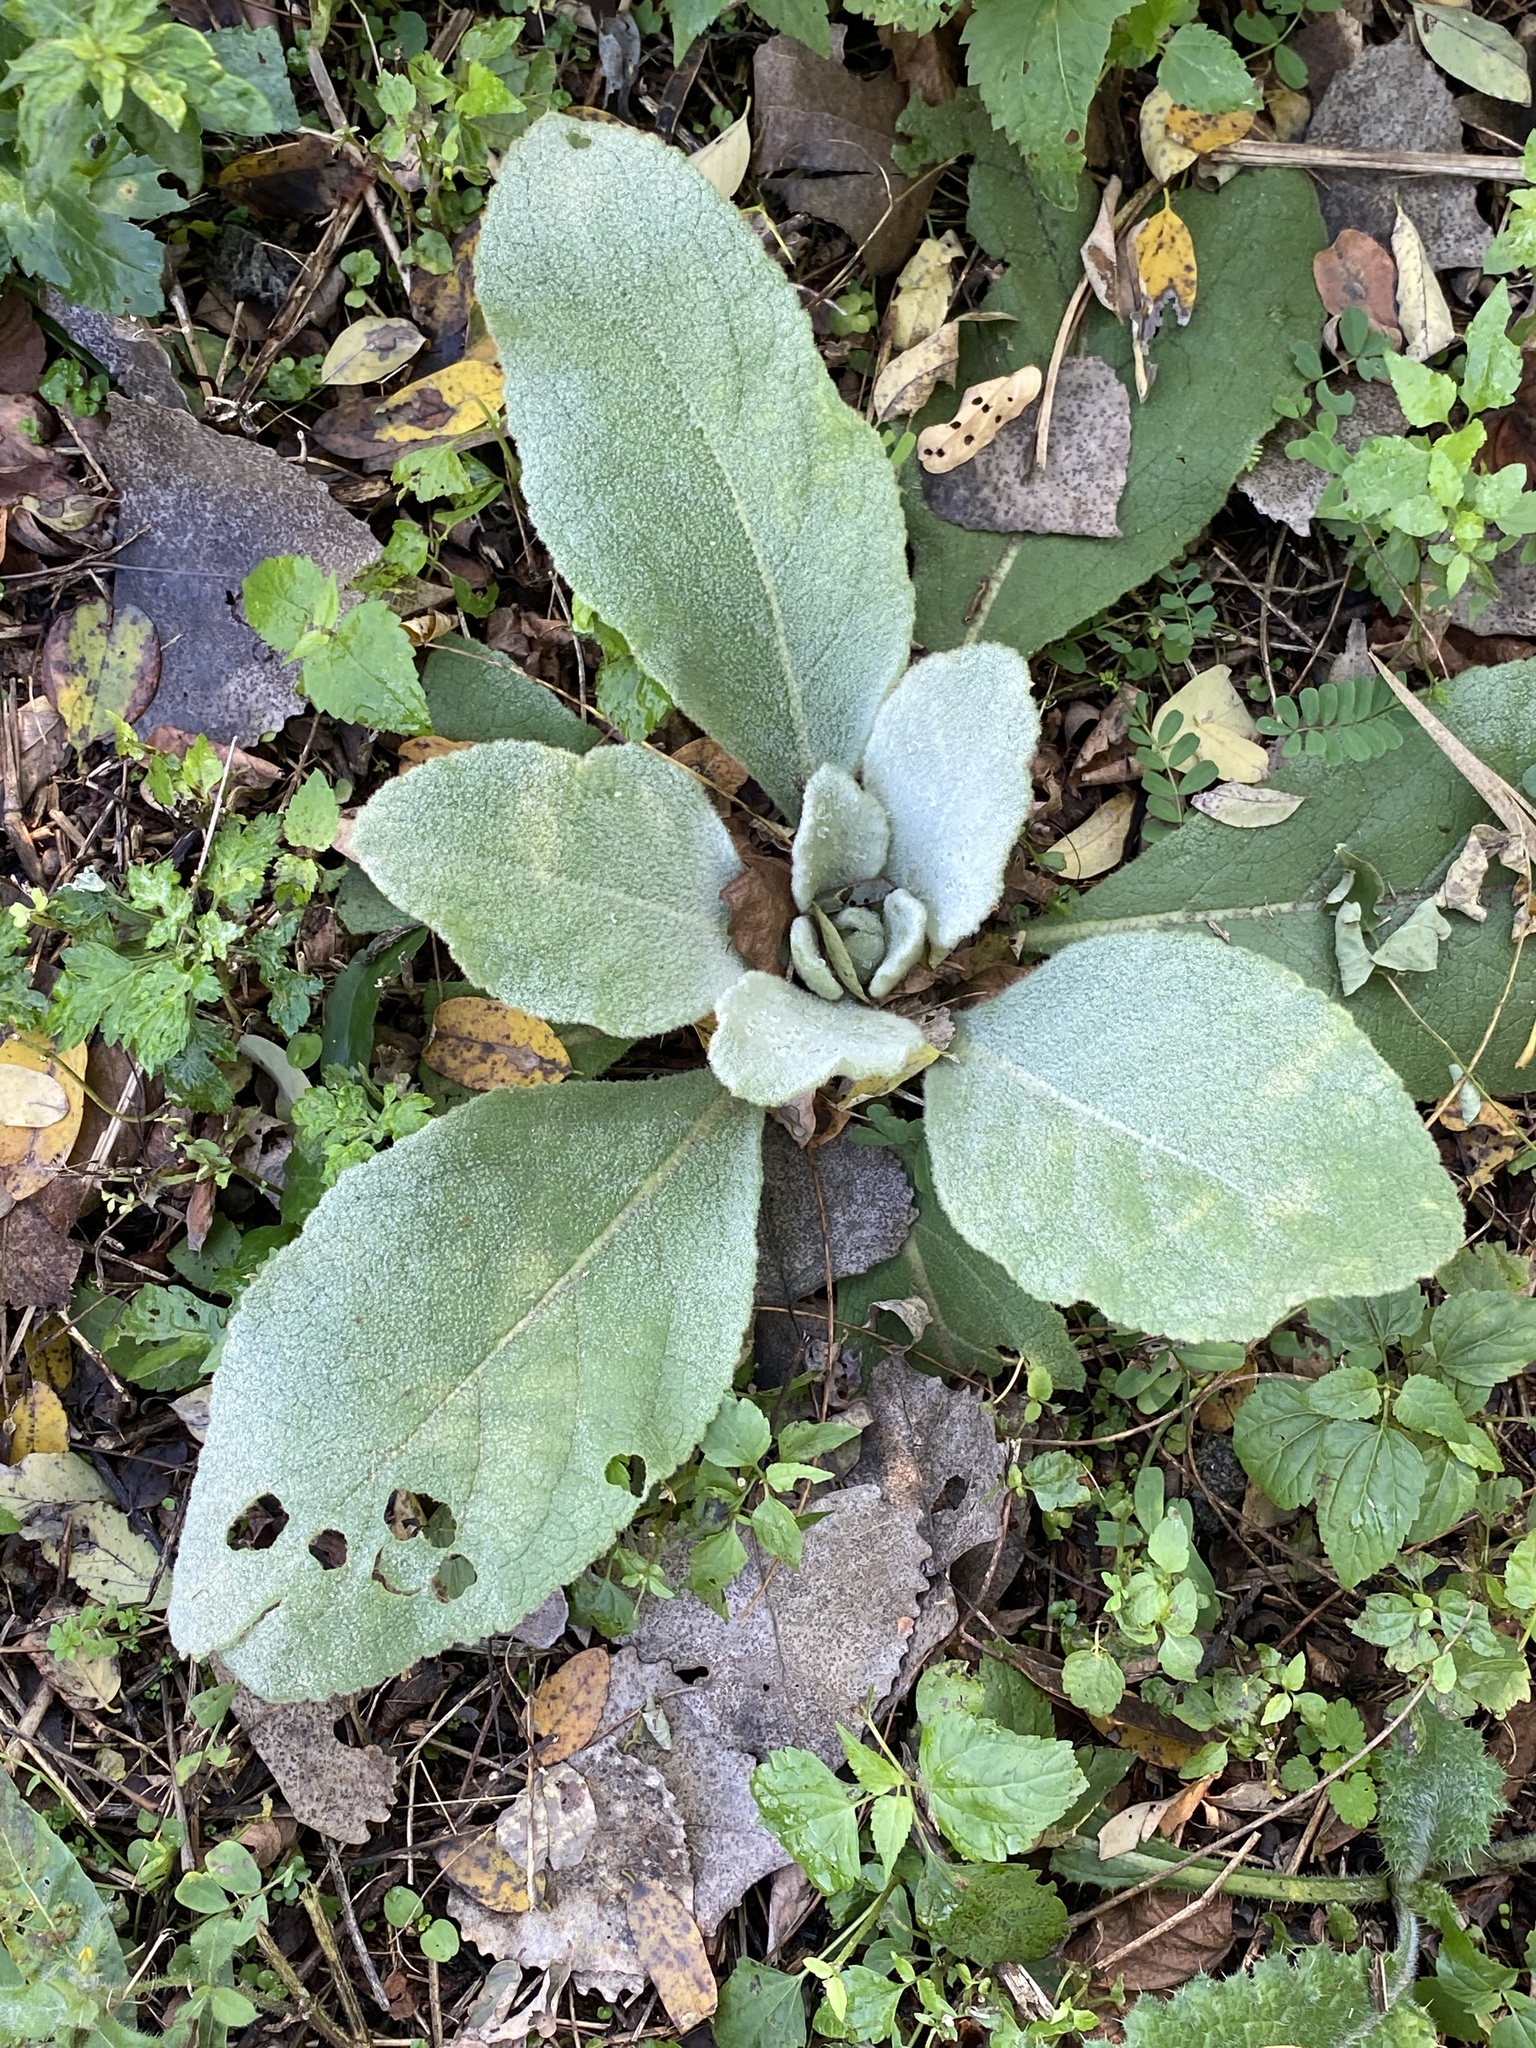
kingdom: Plantae
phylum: Tracheophyta
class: Magnoliopsida
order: Lamiales
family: Scrophulariaceae
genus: Verbascum
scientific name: Verbascum thapsus
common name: Common mullein
